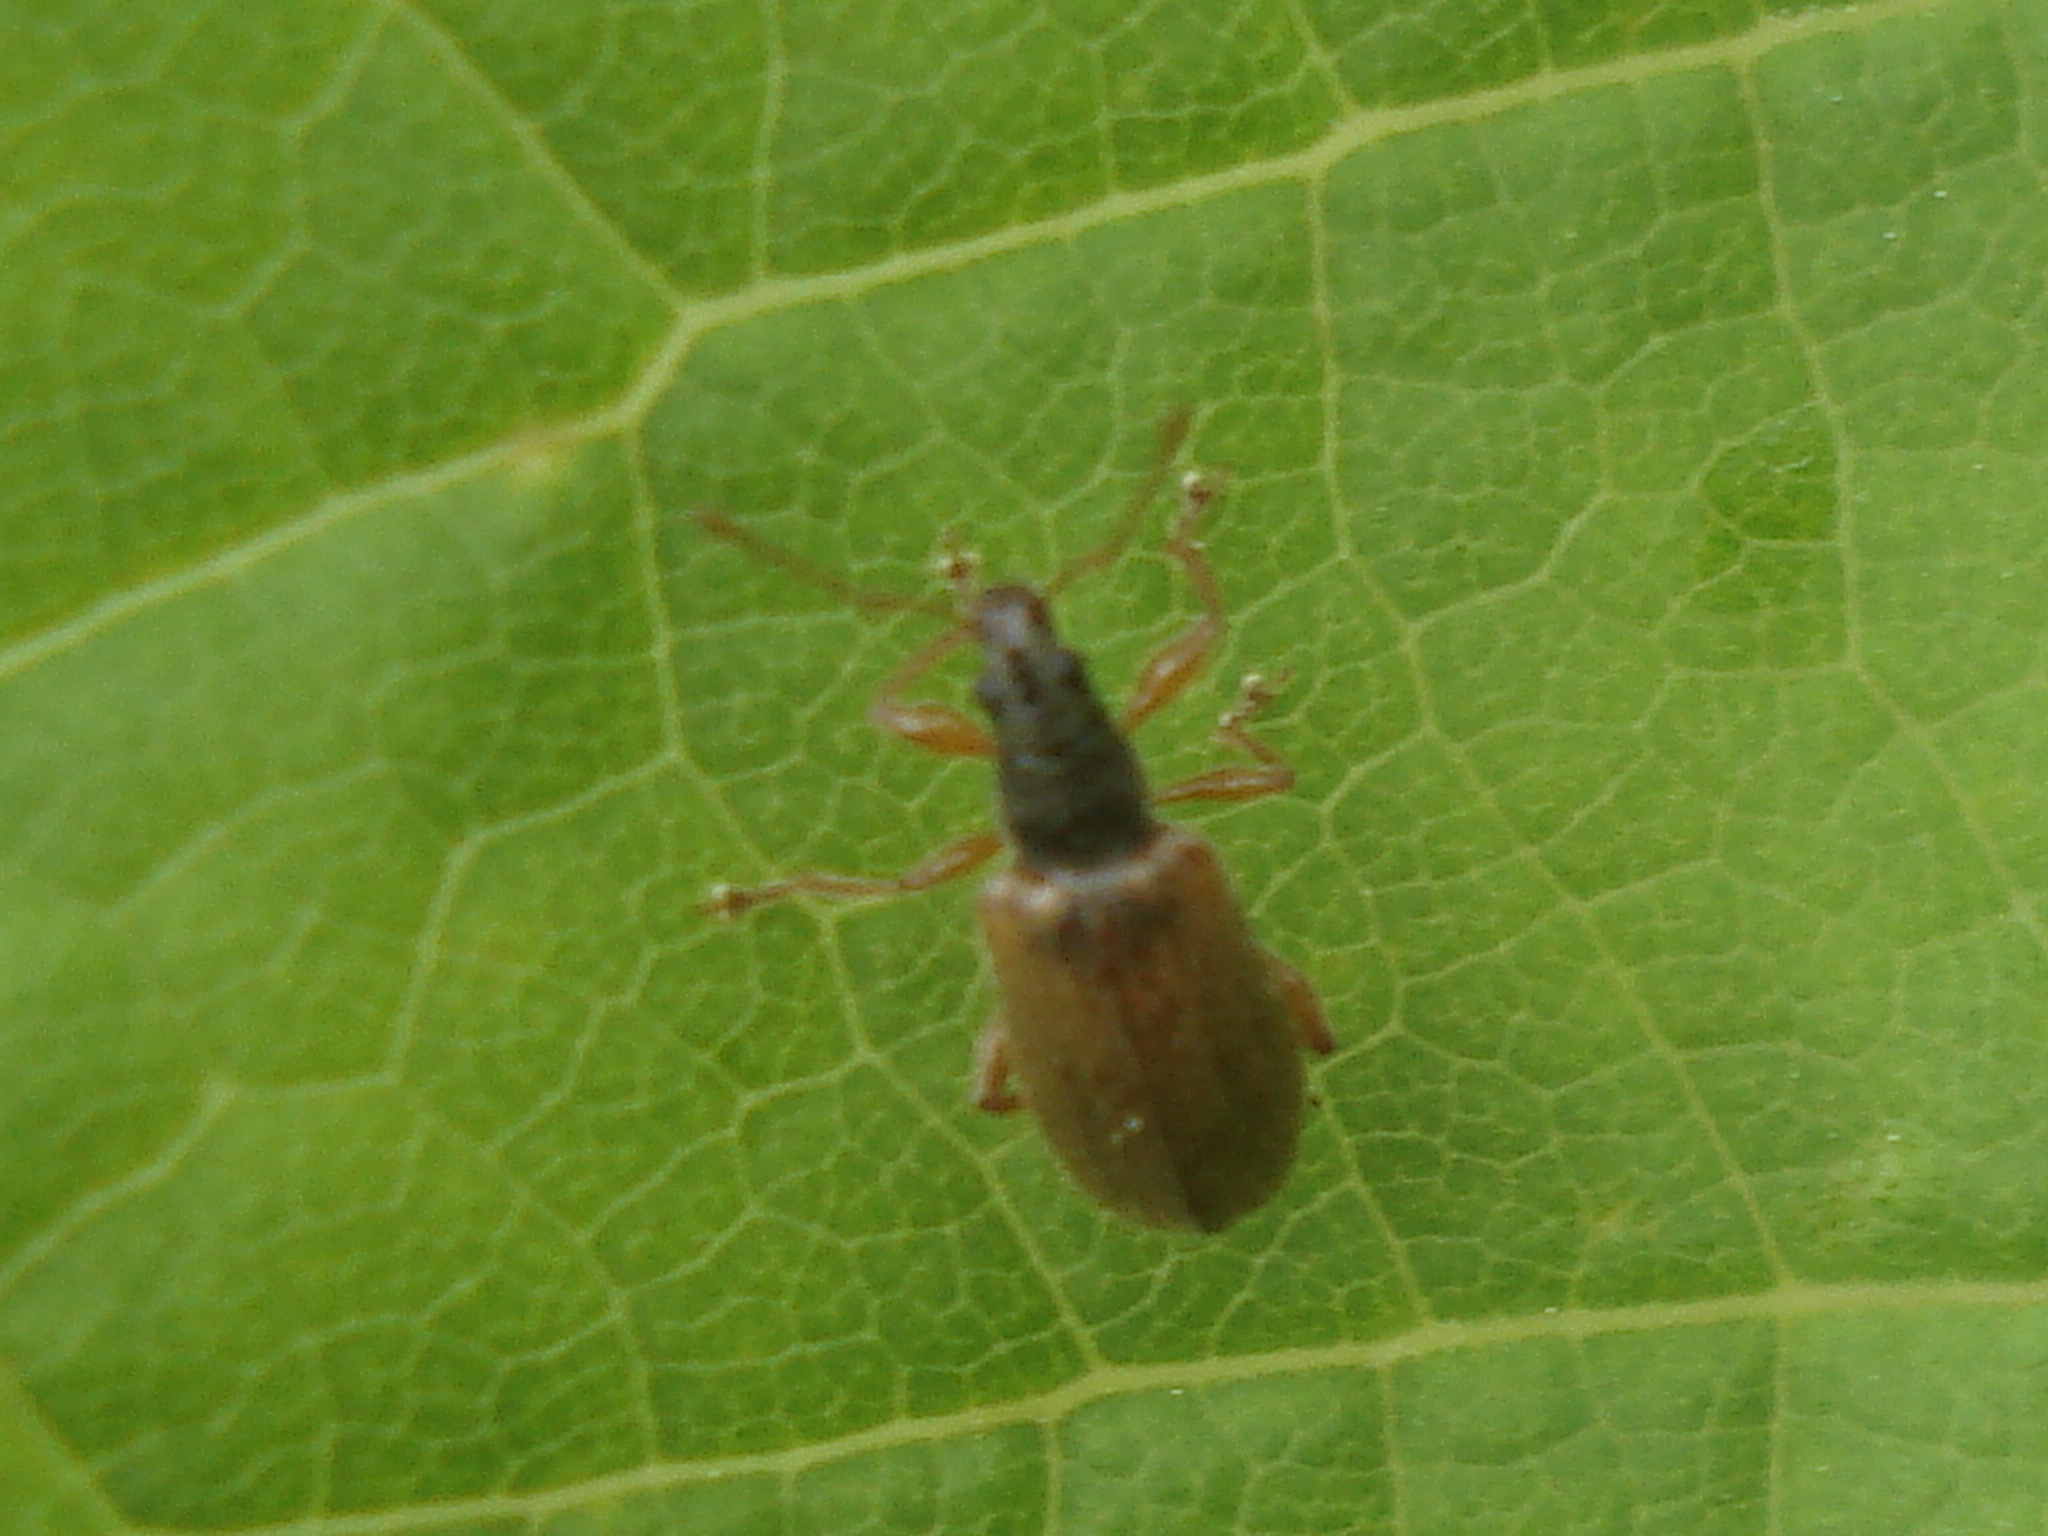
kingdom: Animalia
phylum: Arthropoda
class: Insecta
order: Coleoptera
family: Curculionidae
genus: Phyllobius
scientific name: Phyllobius oblongus
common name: Brown leaf weevil
